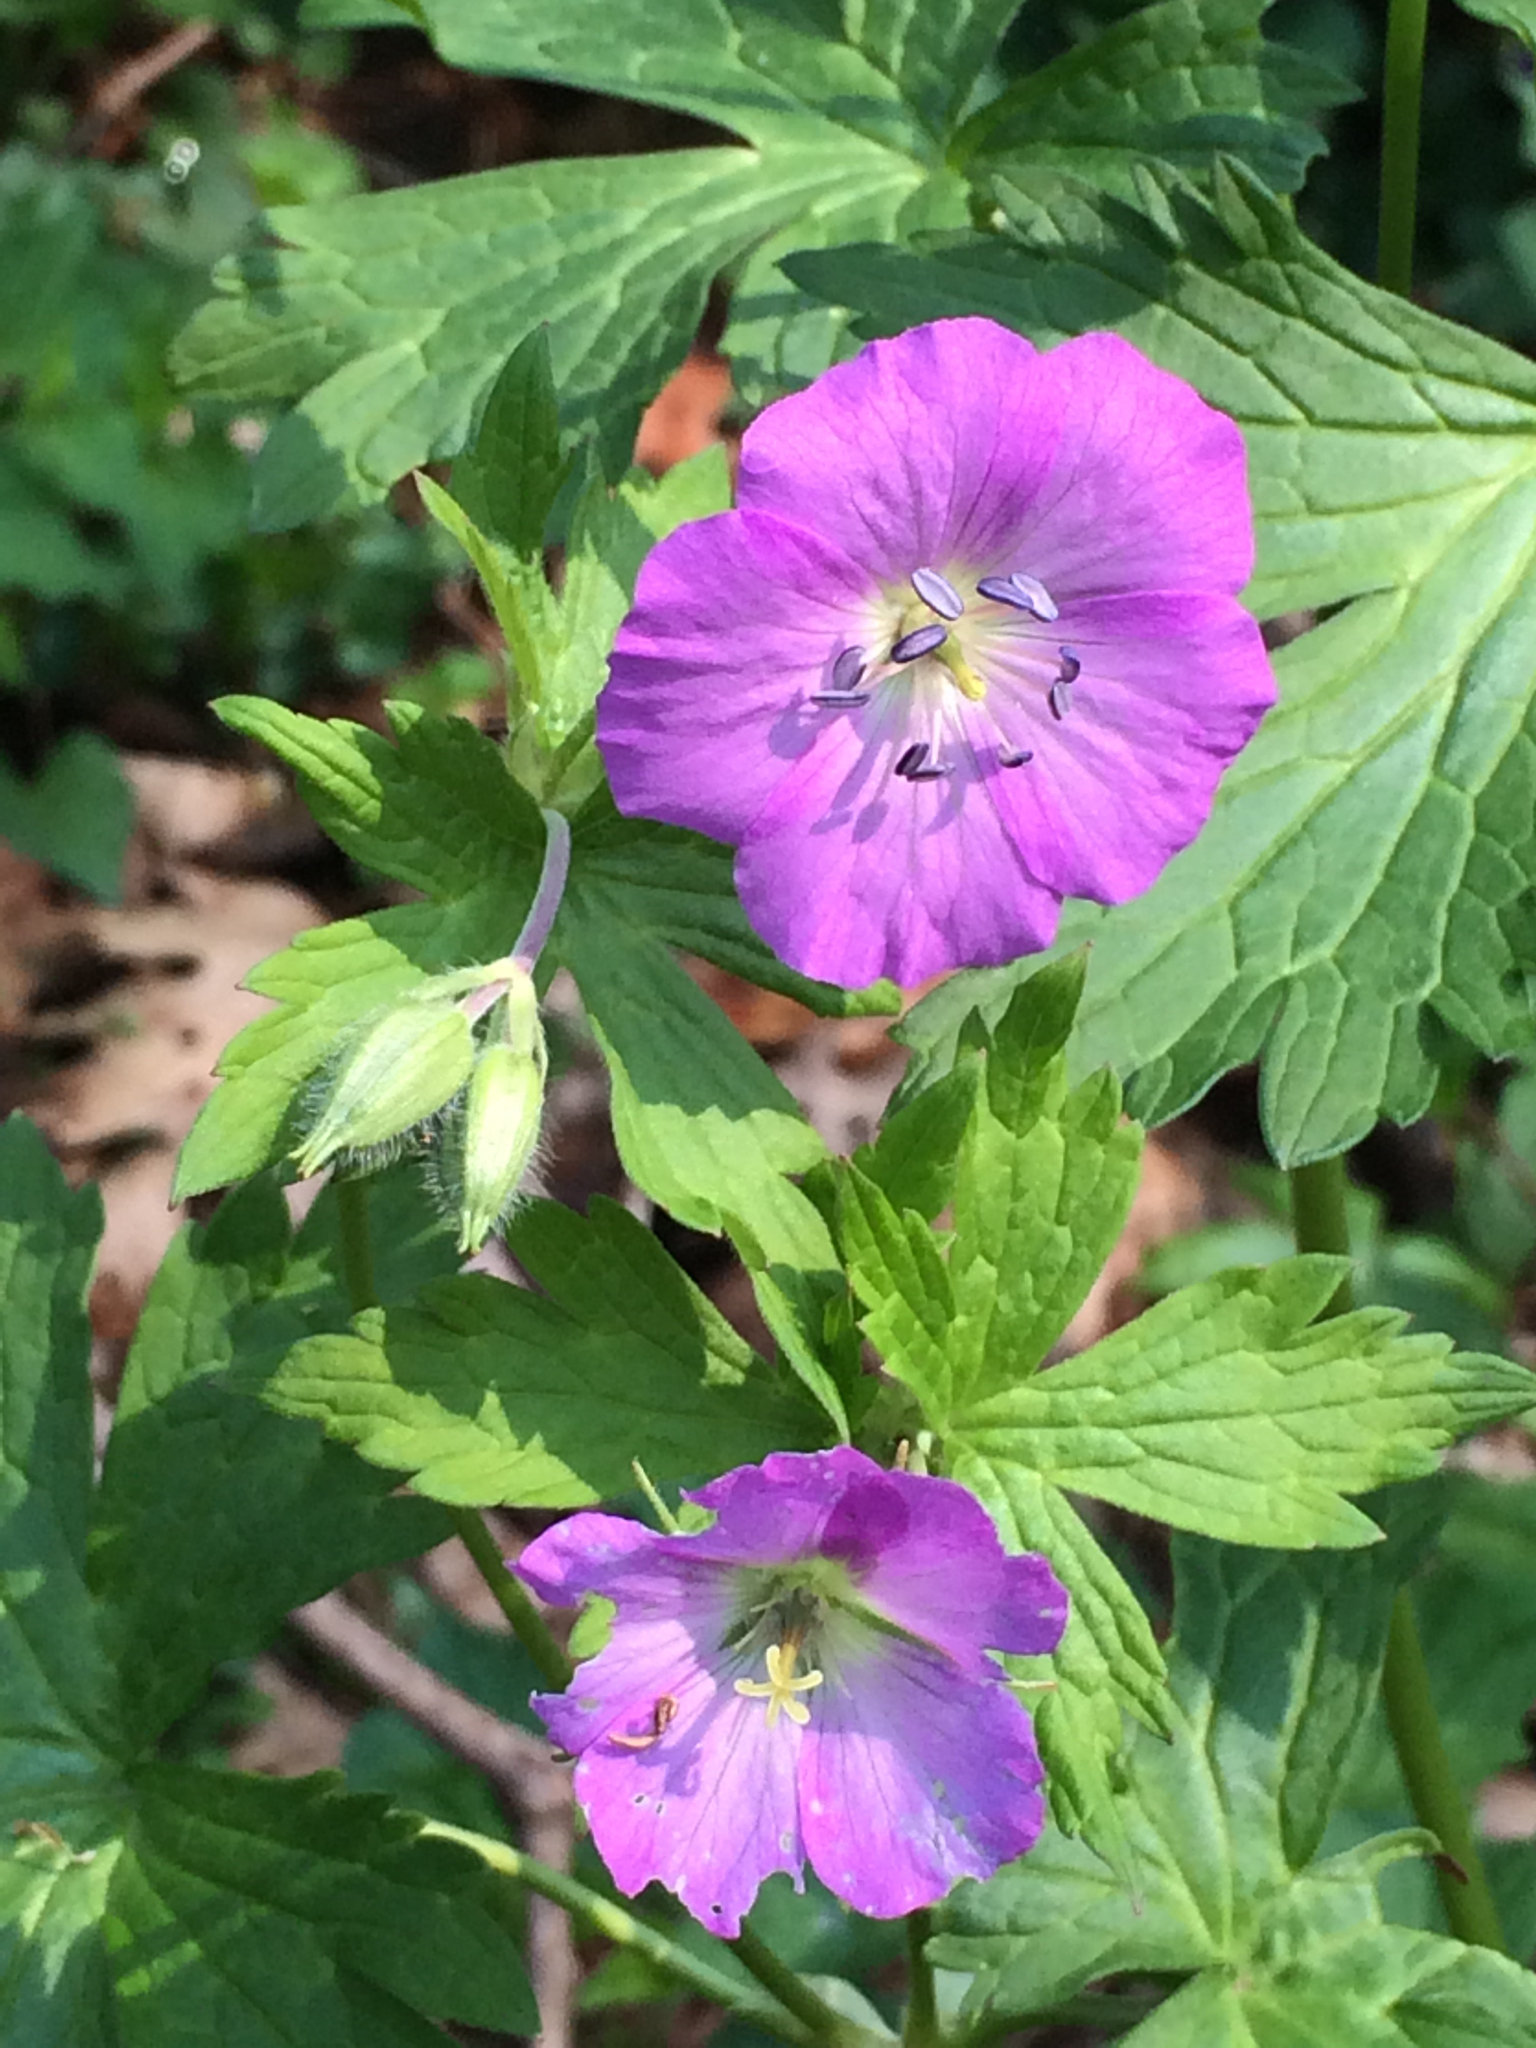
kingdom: Plantae
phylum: Tracheophyta
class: Magnoliopsida
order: Geraniales
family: Geraniaceae
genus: Geranium
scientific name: Geranium maculatum
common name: Spotted geranium
